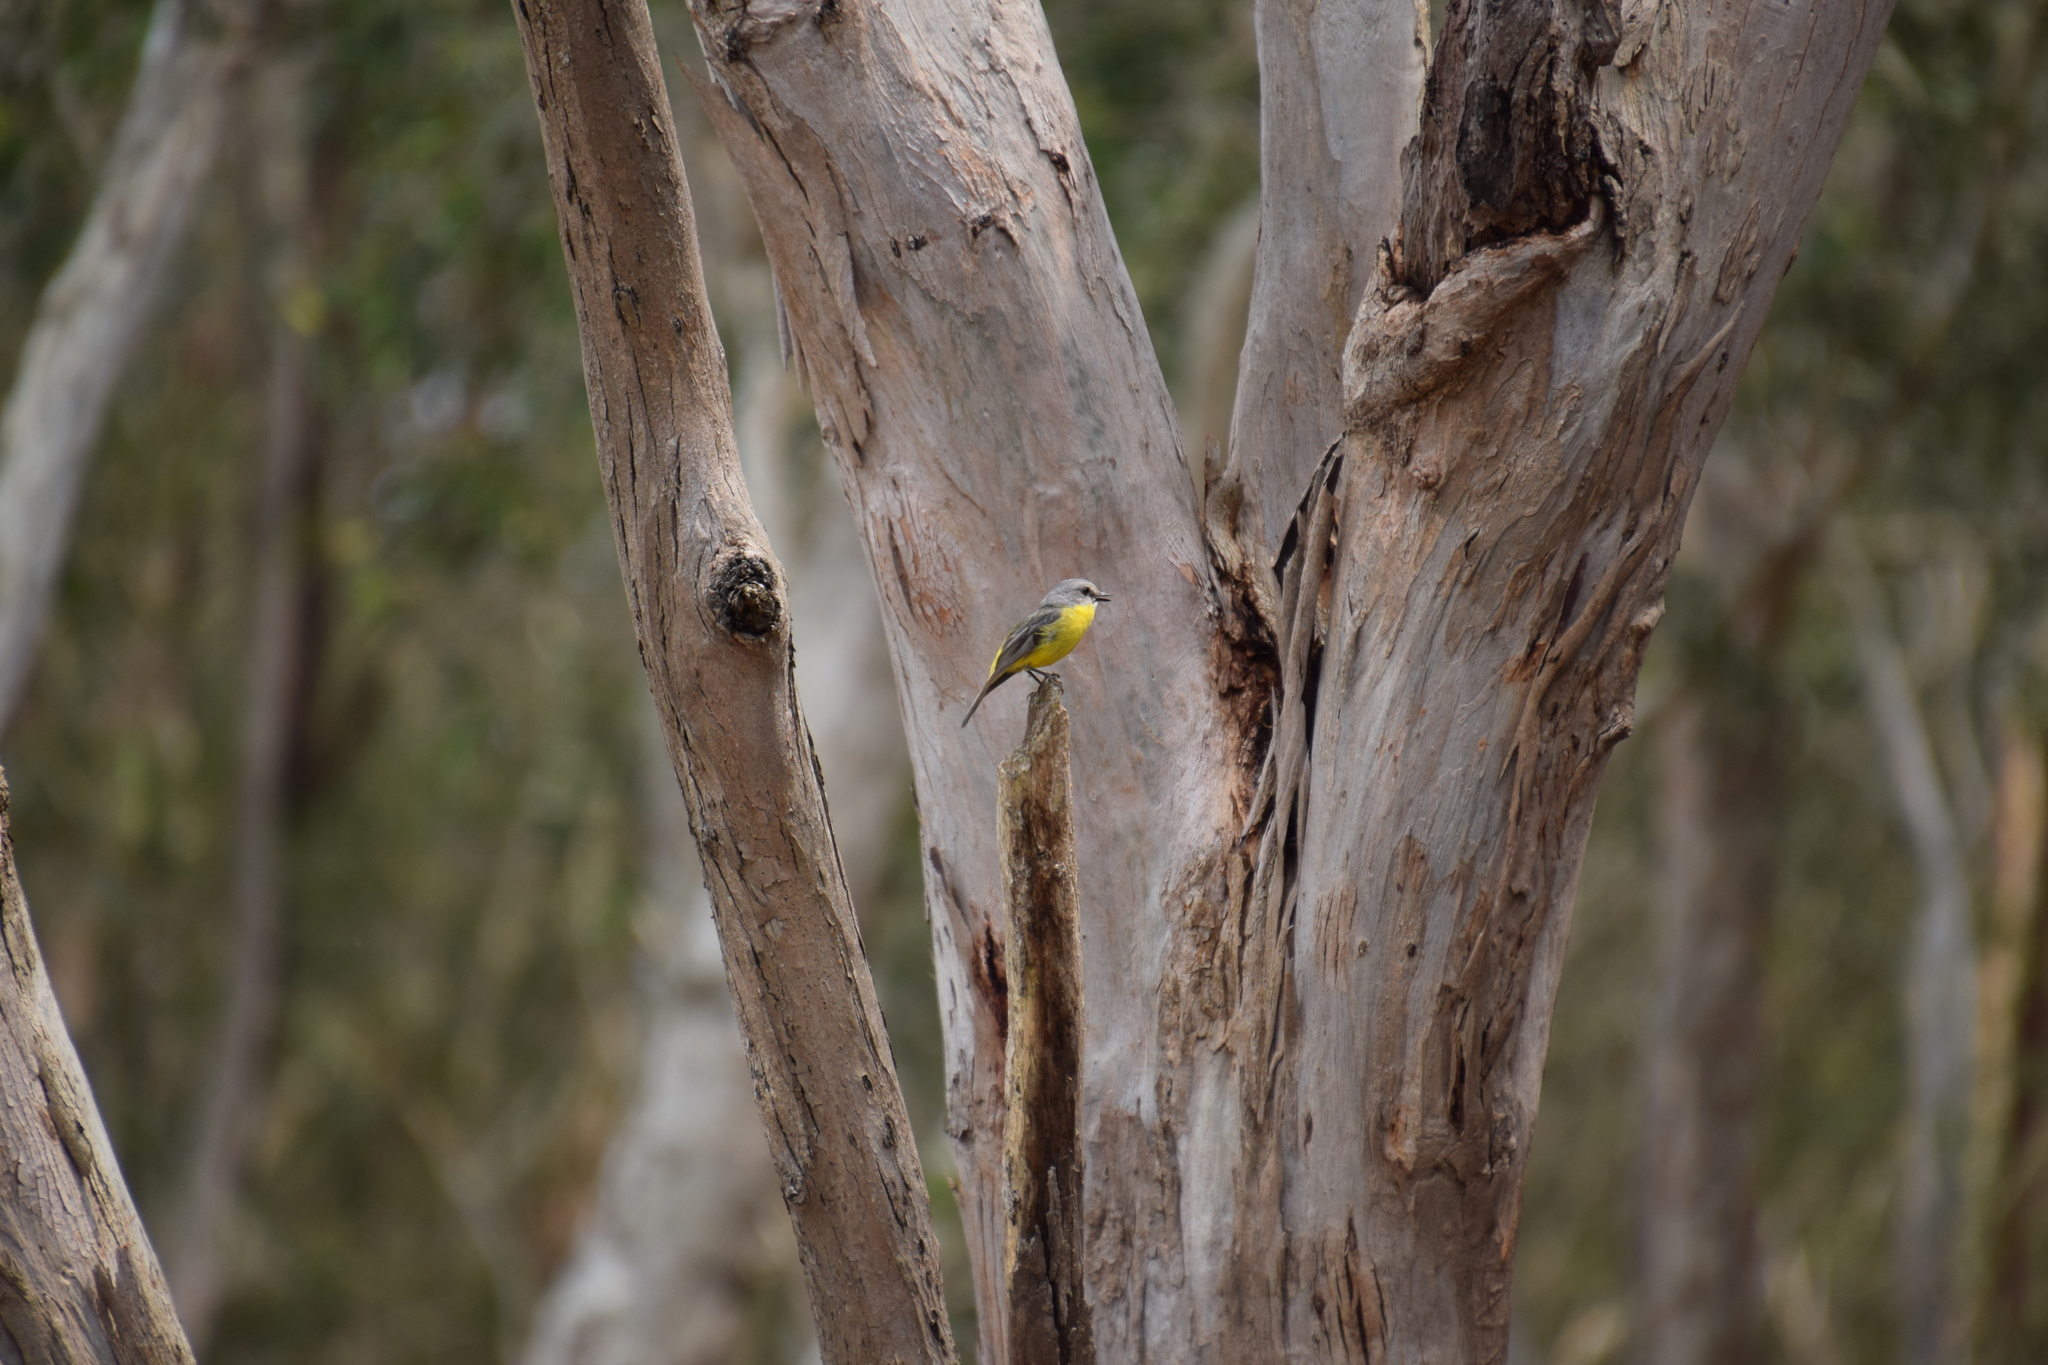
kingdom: Animalia
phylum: Chordata
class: Aves
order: Passeriformes
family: Petroicidae
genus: Eopsaltria
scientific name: Eopsaltria australis
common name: Eastern yellow robin
